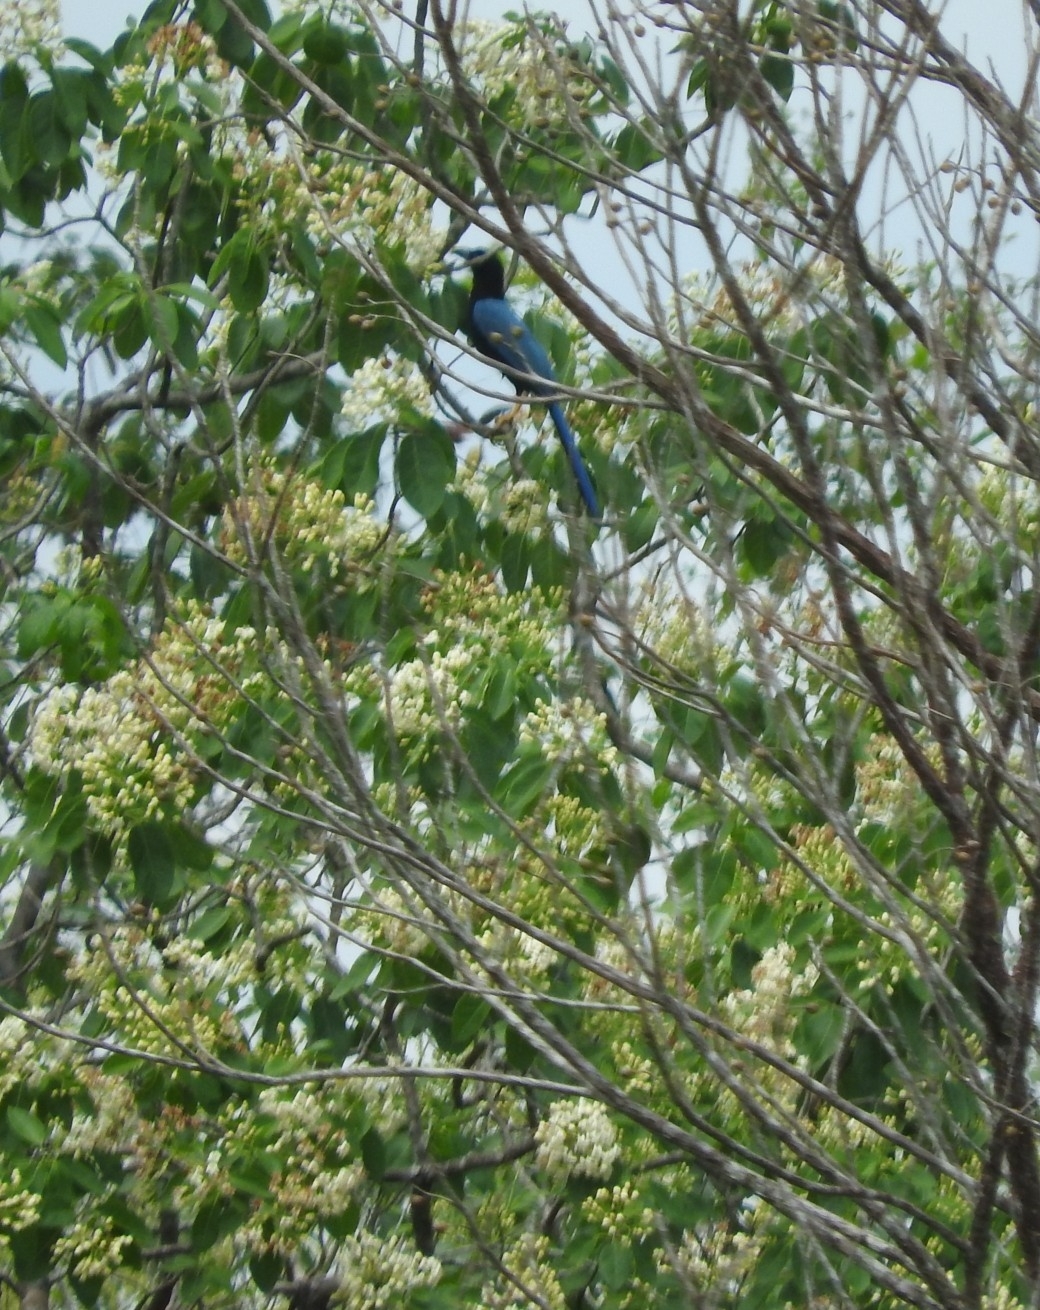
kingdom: Animalia
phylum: Chordata
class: Aves
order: Passeriformes
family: Corvidae
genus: Cyanocorax
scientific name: Cyanocorax yucatanicus
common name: Yucatan jay
